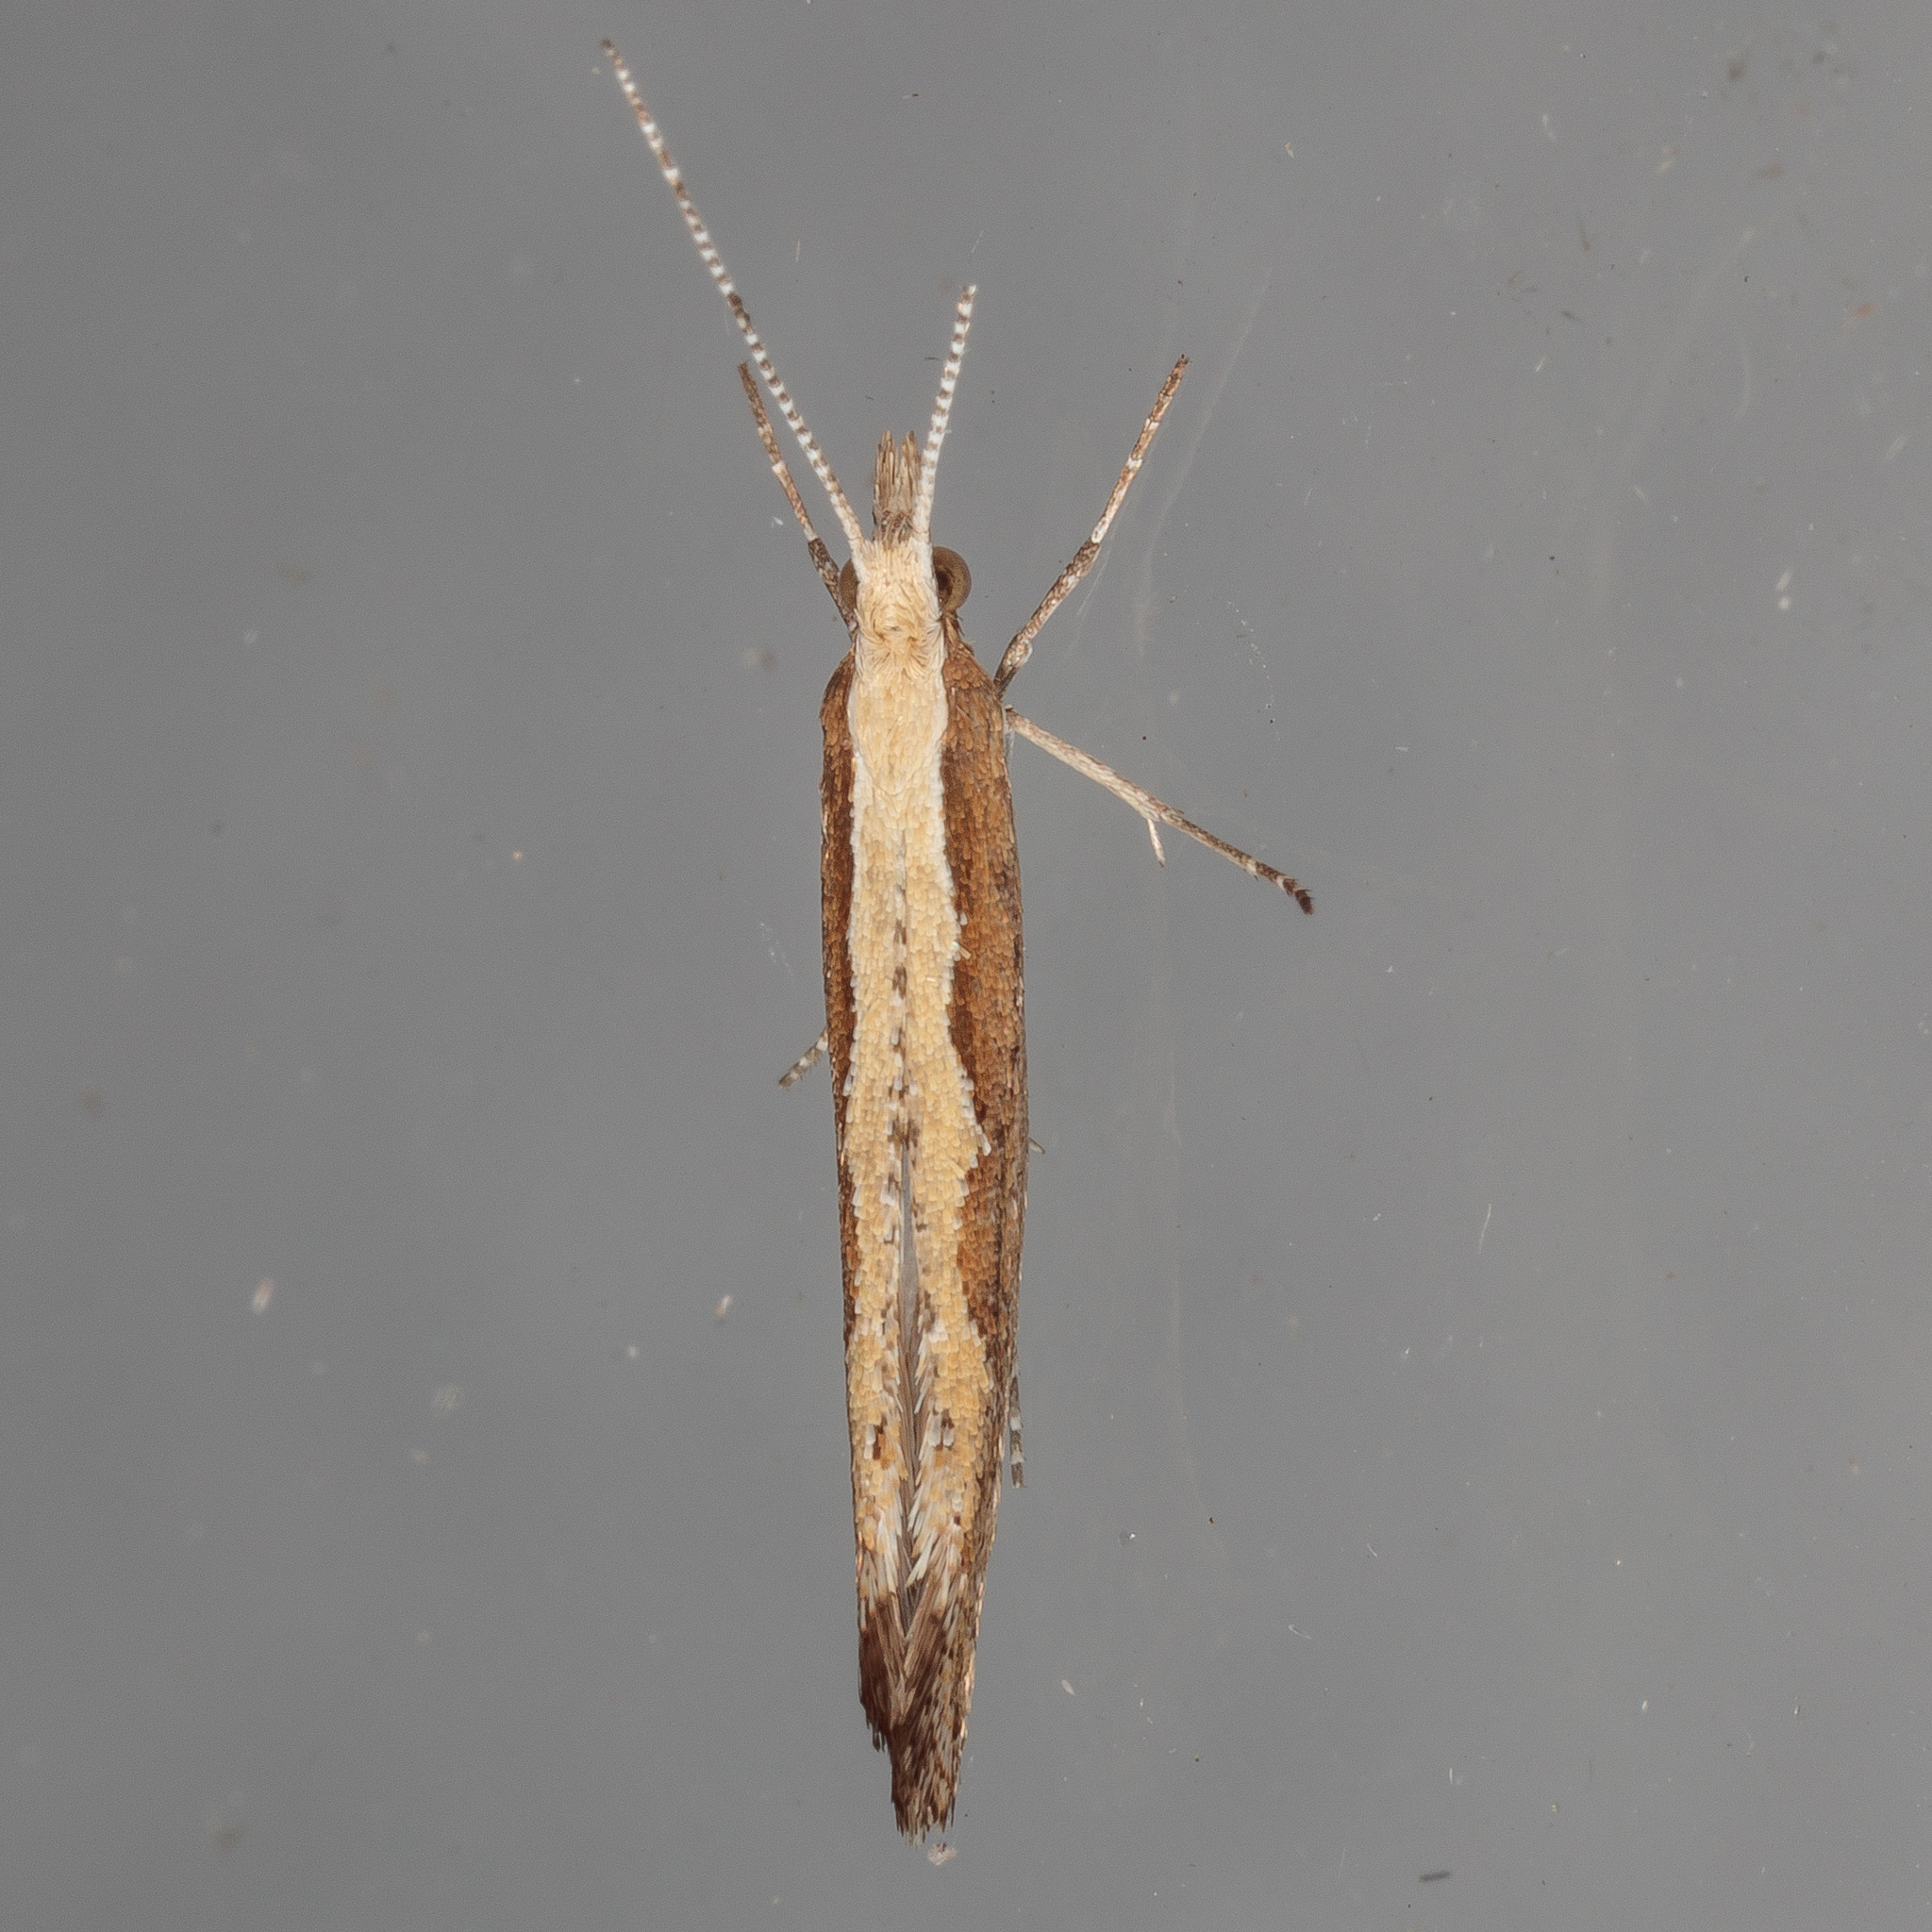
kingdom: Animalia
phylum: Arthropoda
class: Insecta
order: Lepidoptera
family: Plutellidae
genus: Plutella
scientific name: Plutella xylostella
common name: Diamond-back moth
